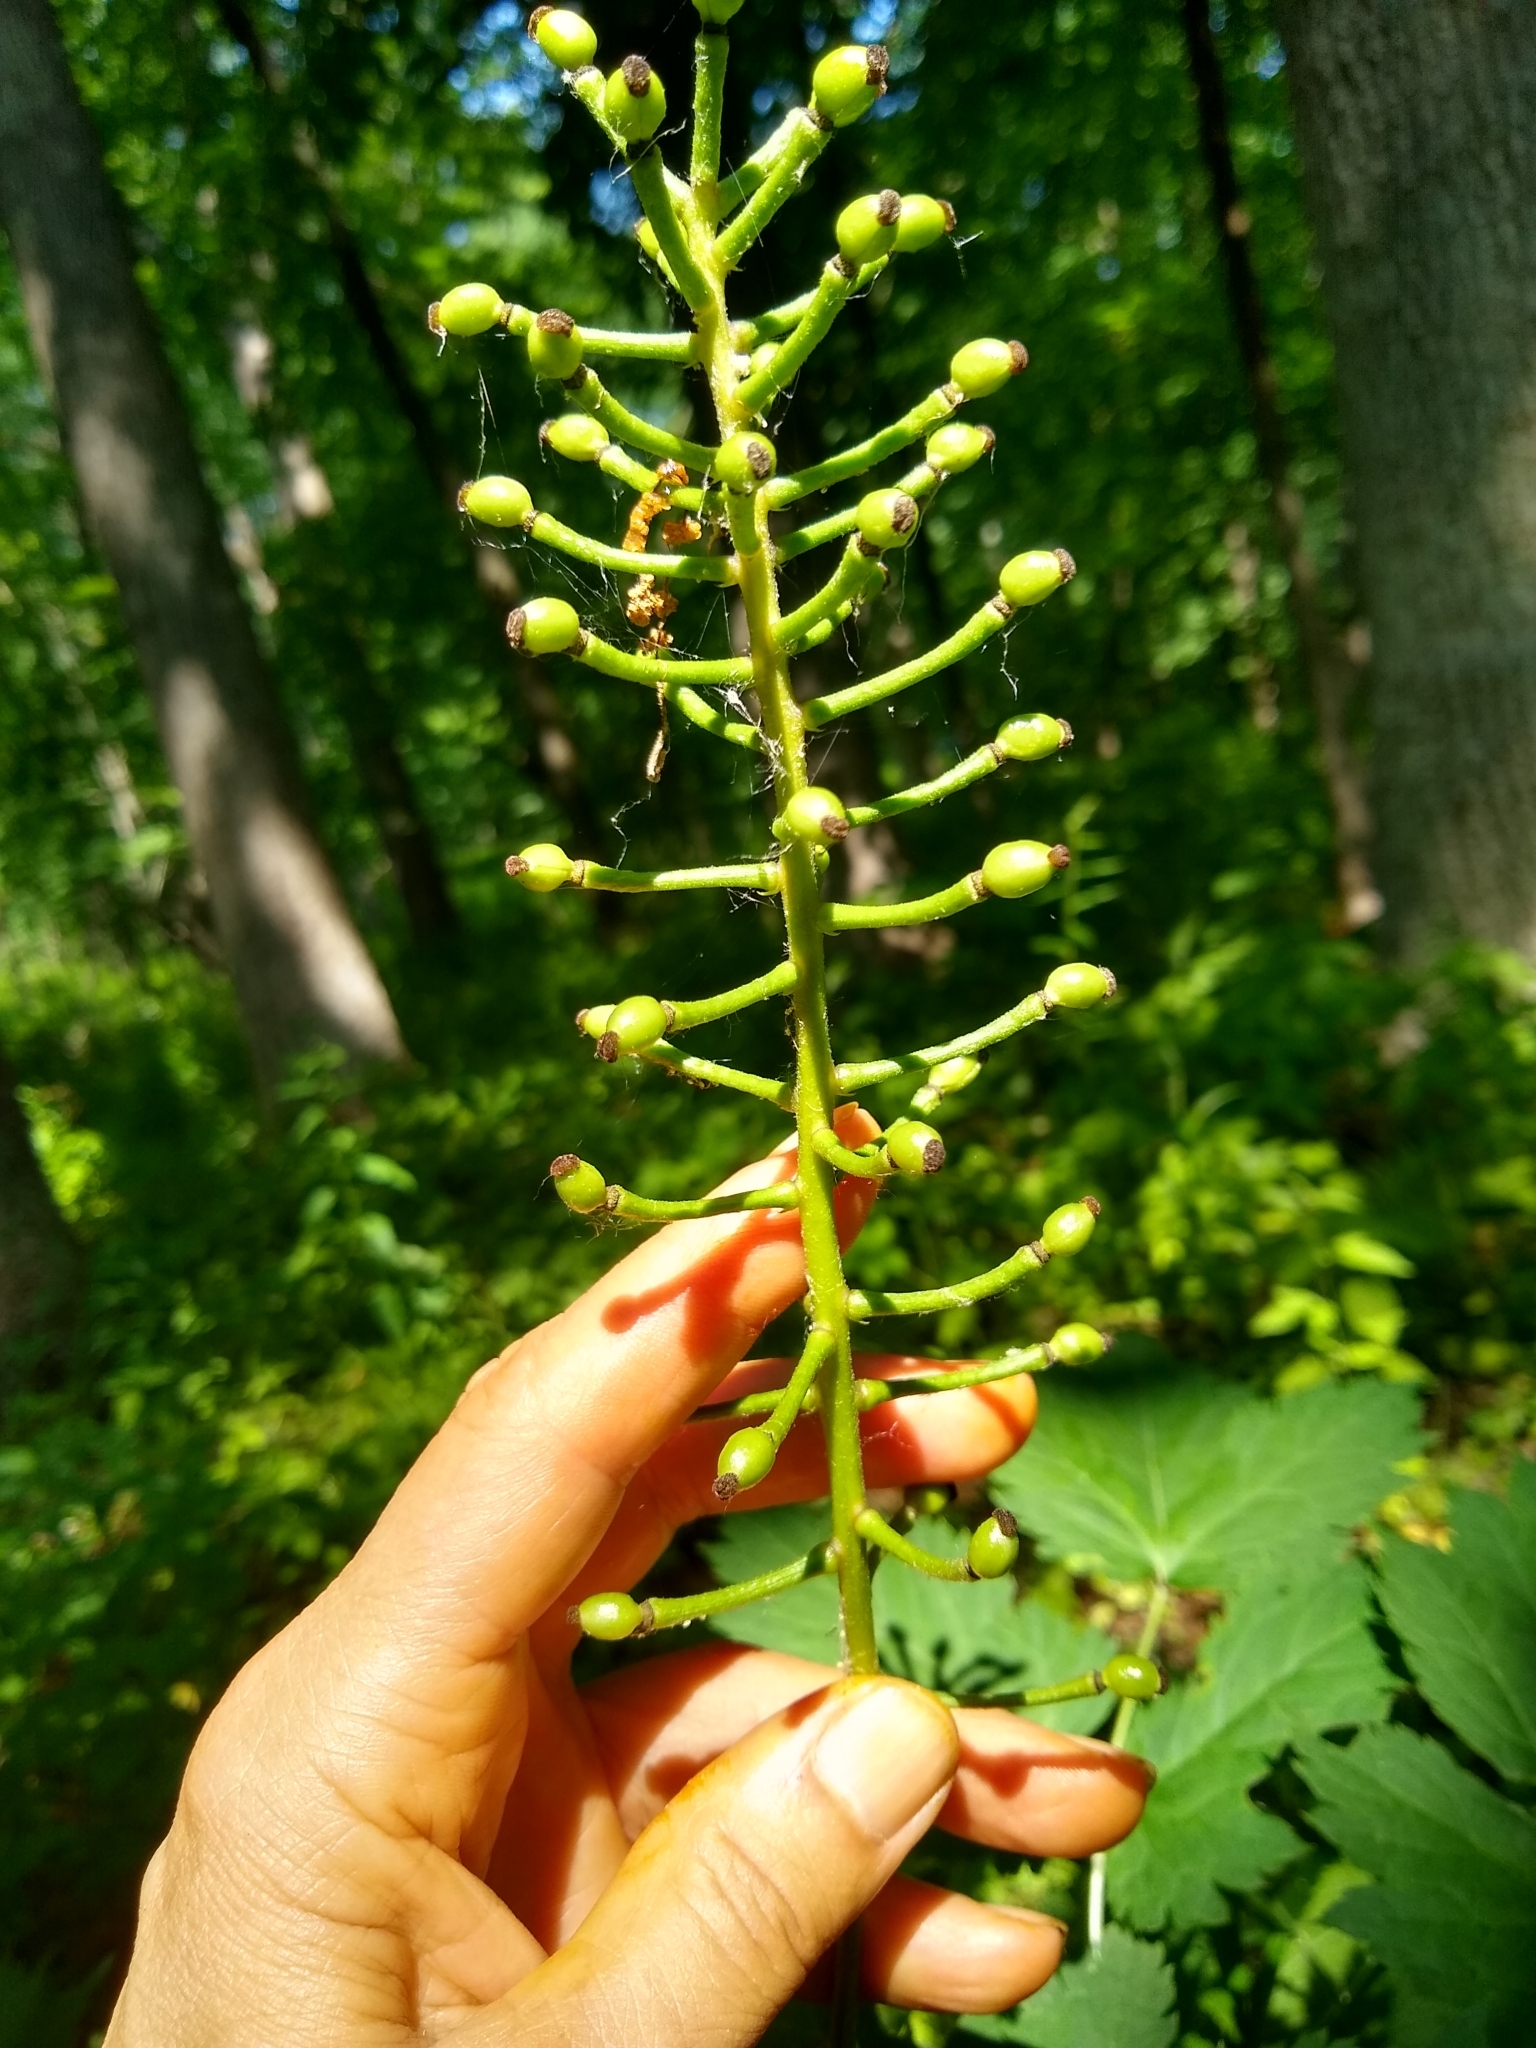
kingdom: Plantae
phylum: Tracheophyta
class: Magnoliopsida
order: Ranunculales
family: Ranunculaceae
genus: Actaea
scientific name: Actaea pachypoda
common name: Doll's-eyes
